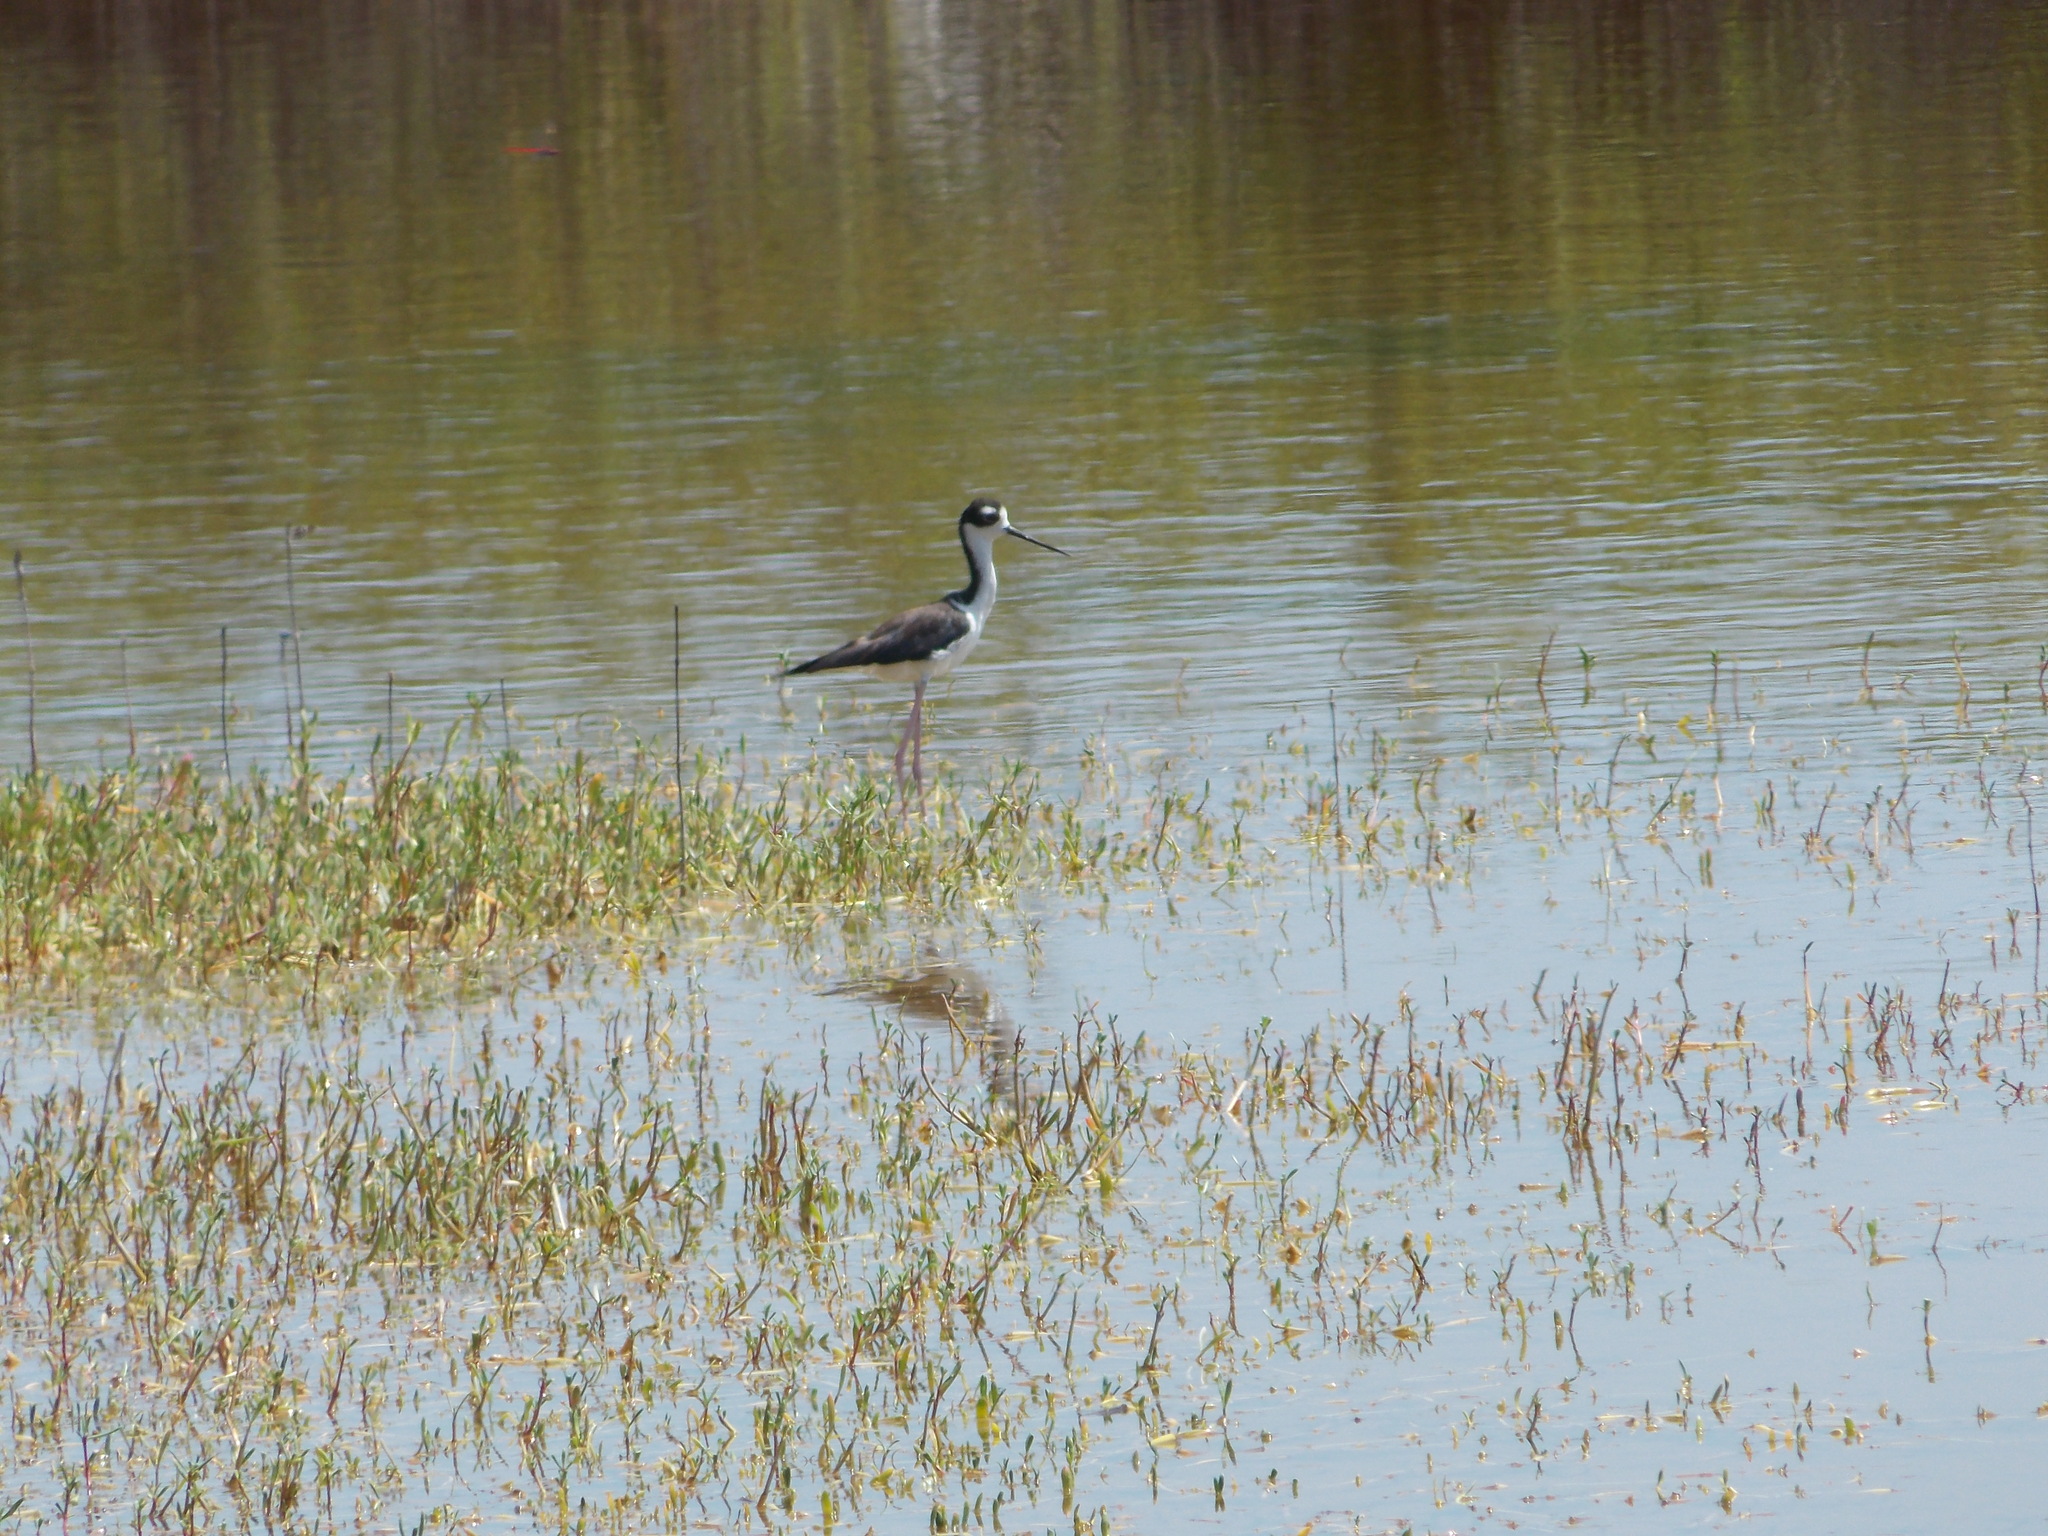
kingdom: Animalia
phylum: Chordata
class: Aves
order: Charadriiformes
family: Recurvirostridae
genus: Himantopus
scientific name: Himantopus mexicanus
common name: Black-necked stilt
